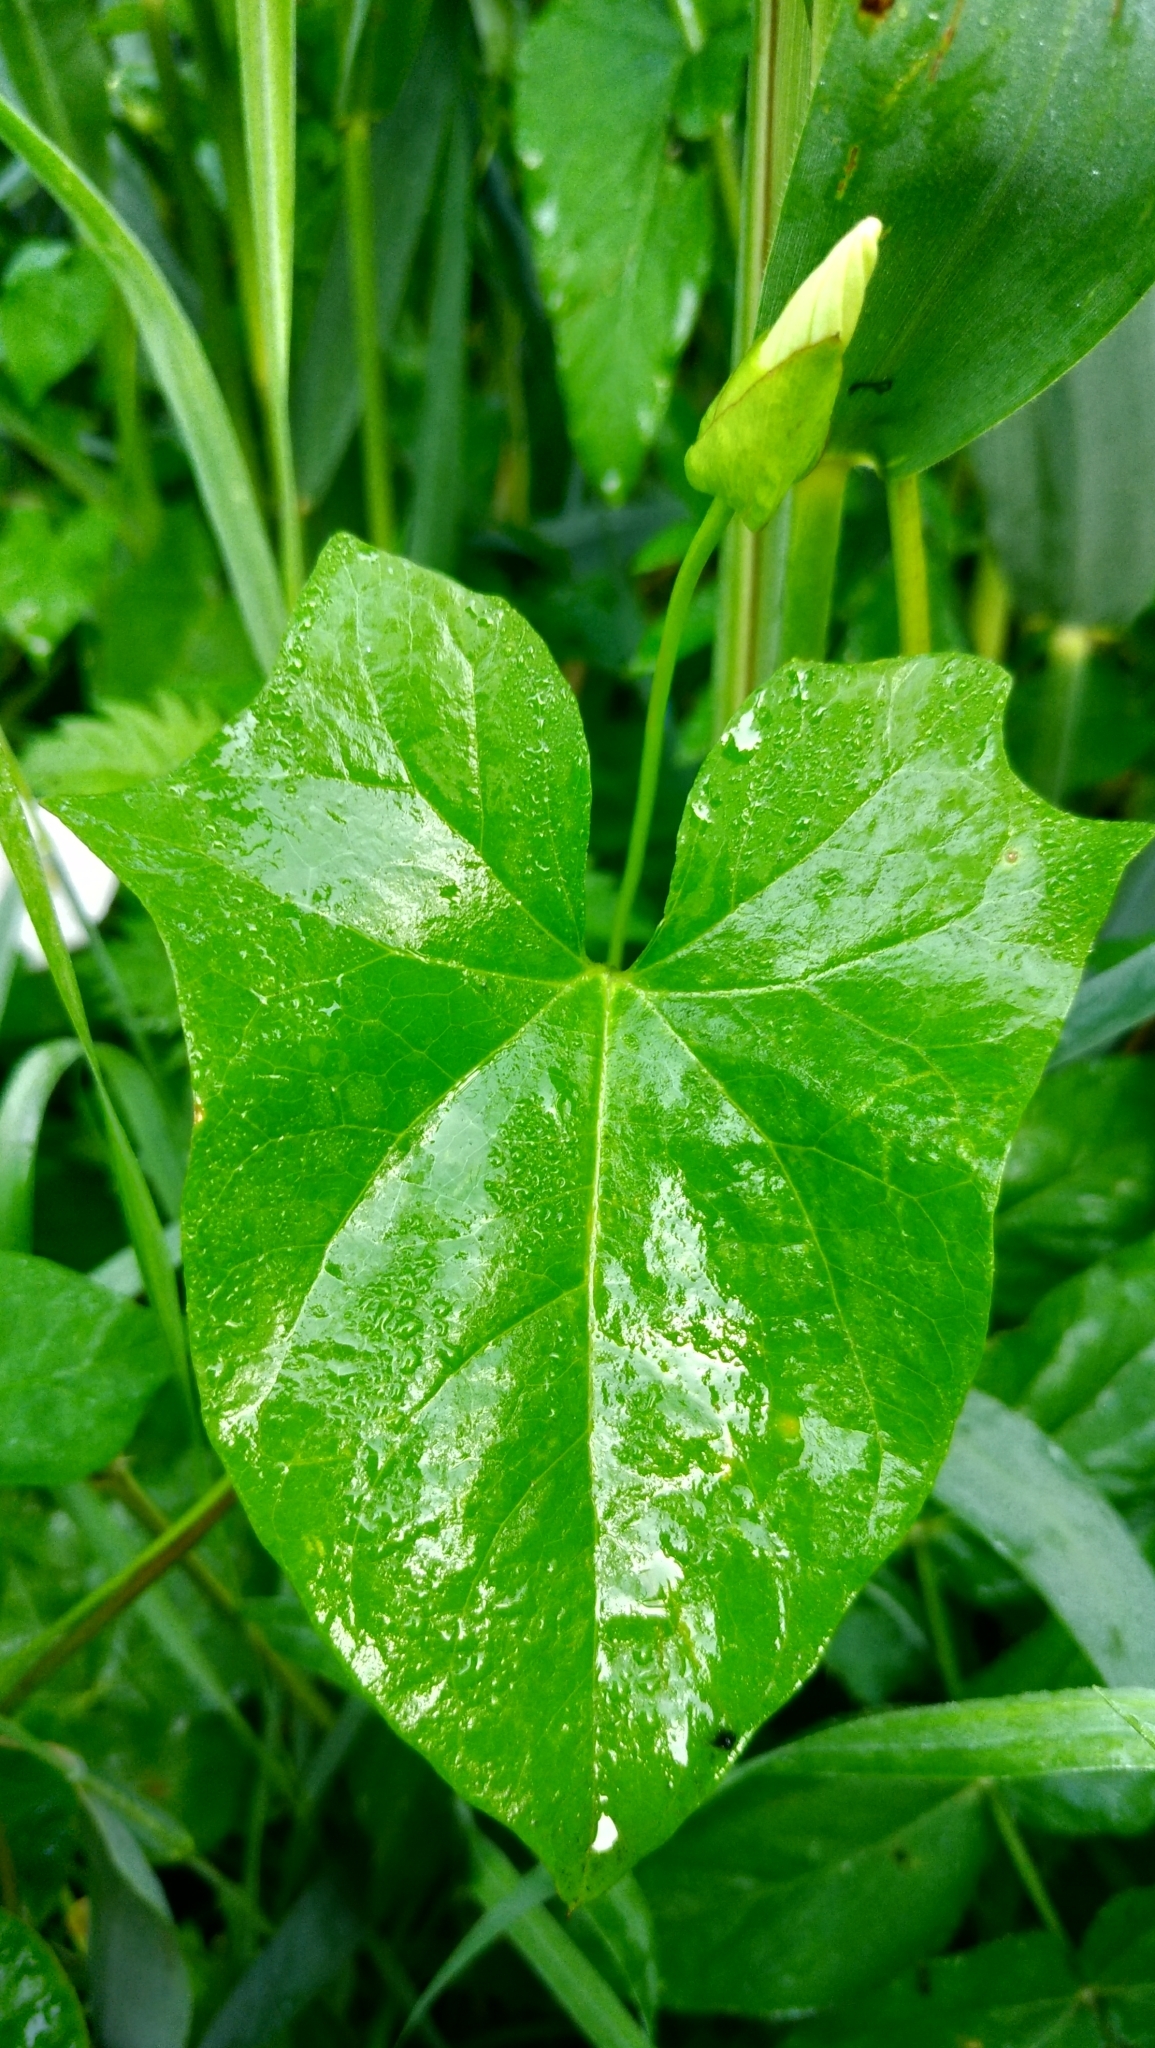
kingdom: Plantae
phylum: Tracheophyta
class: Magnoliopsida
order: Solanales
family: Convolvulaceae
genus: Calystegia
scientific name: Calystegia sepium
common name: Hedge bindweed
